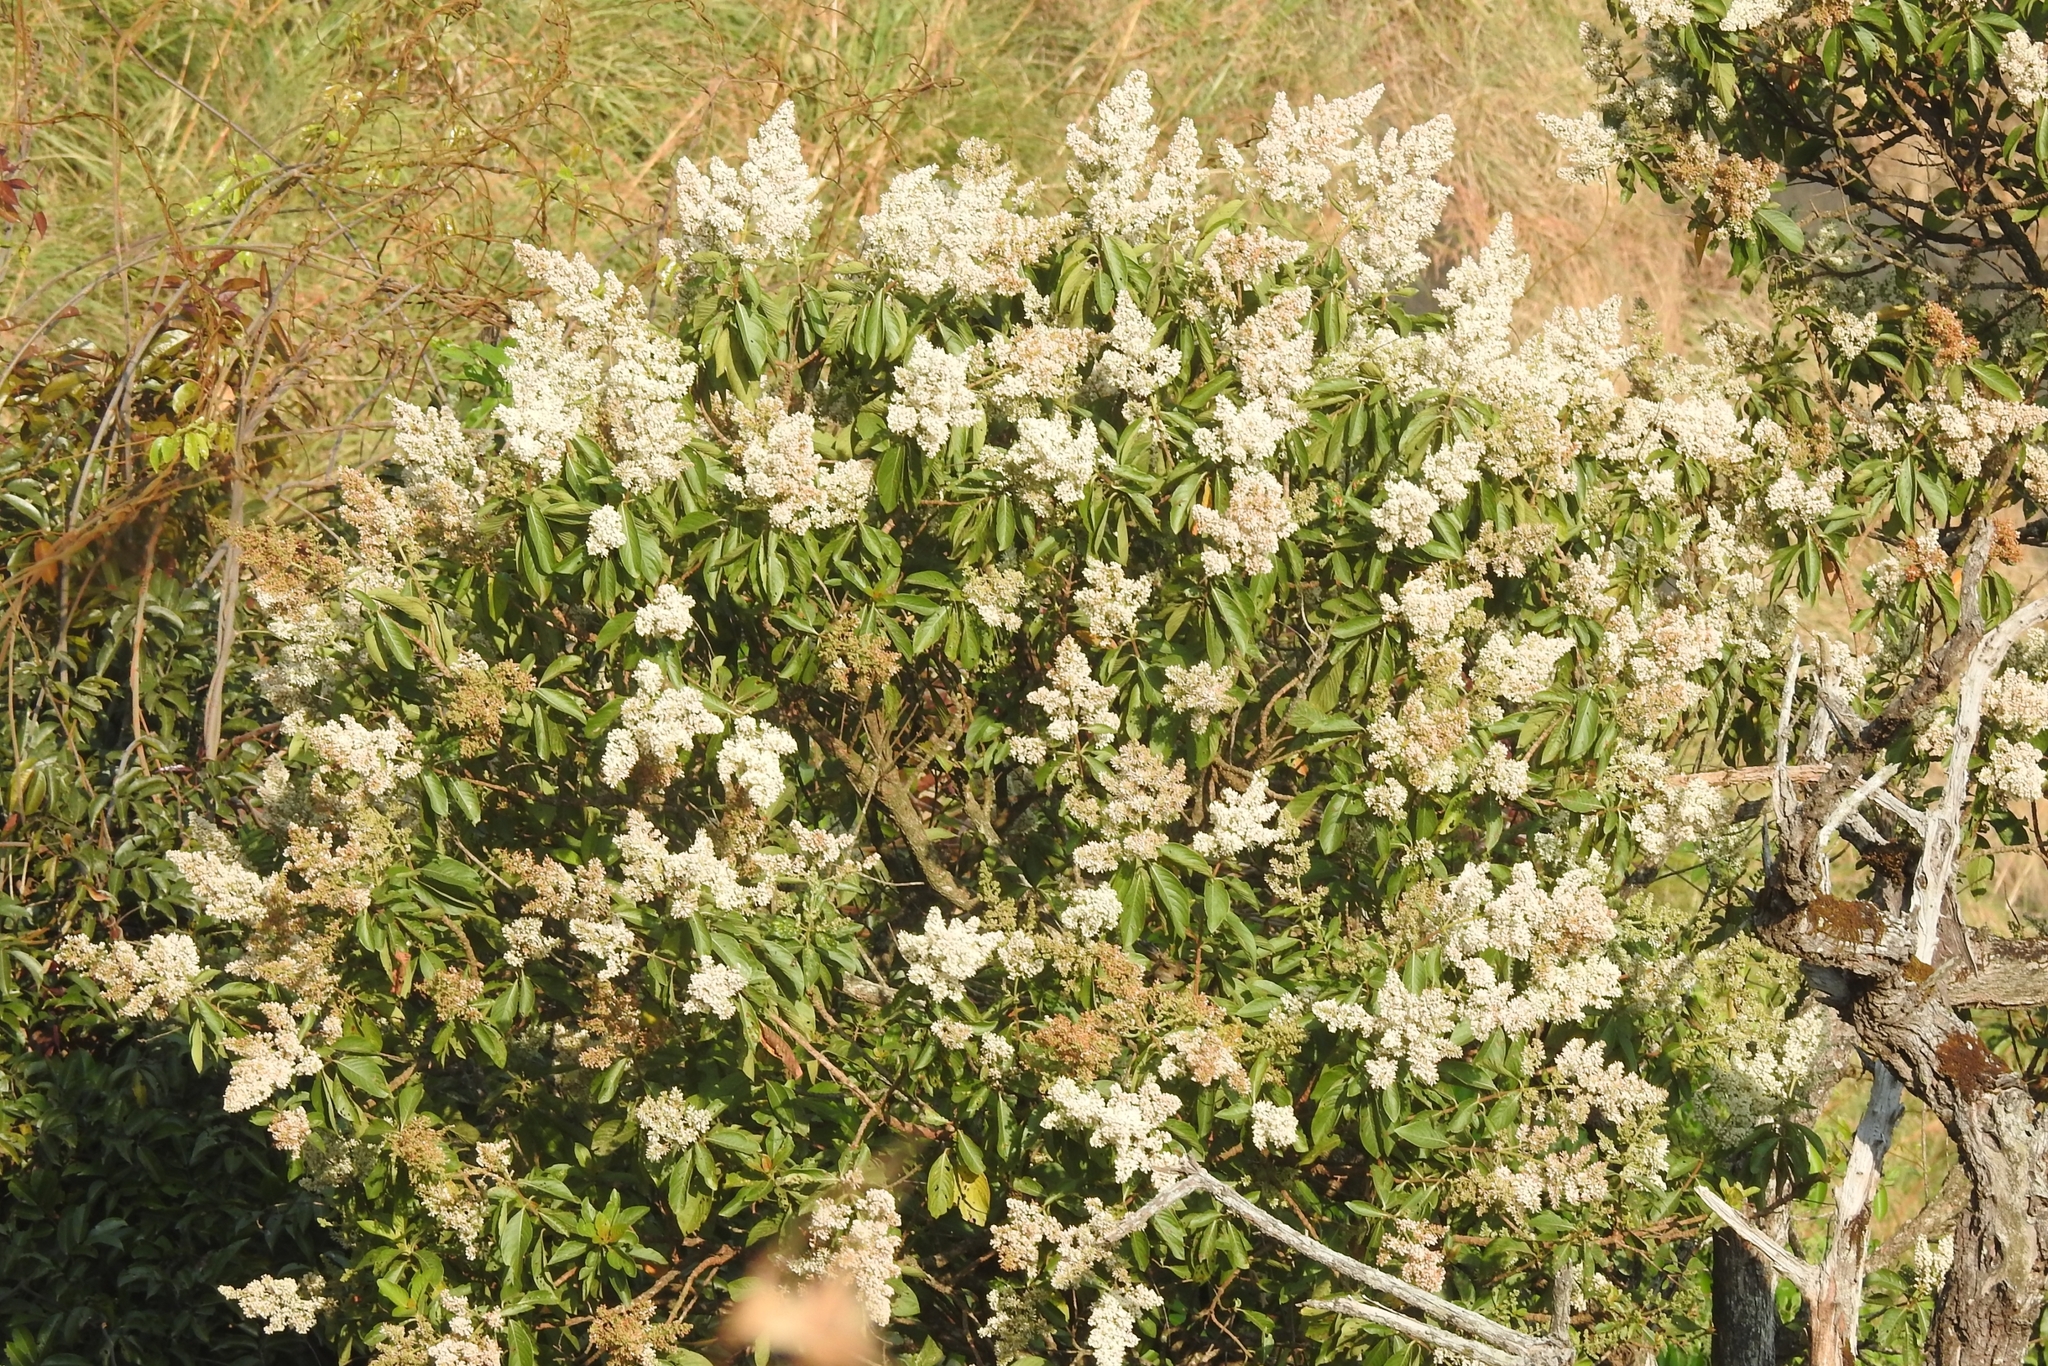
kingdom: Plantae
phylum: Tracheophyta
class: Magnoliopsida
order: Gentianales
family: Rubiaceae
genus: Wendlandia
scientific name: Wendlandia thyrsoidea
